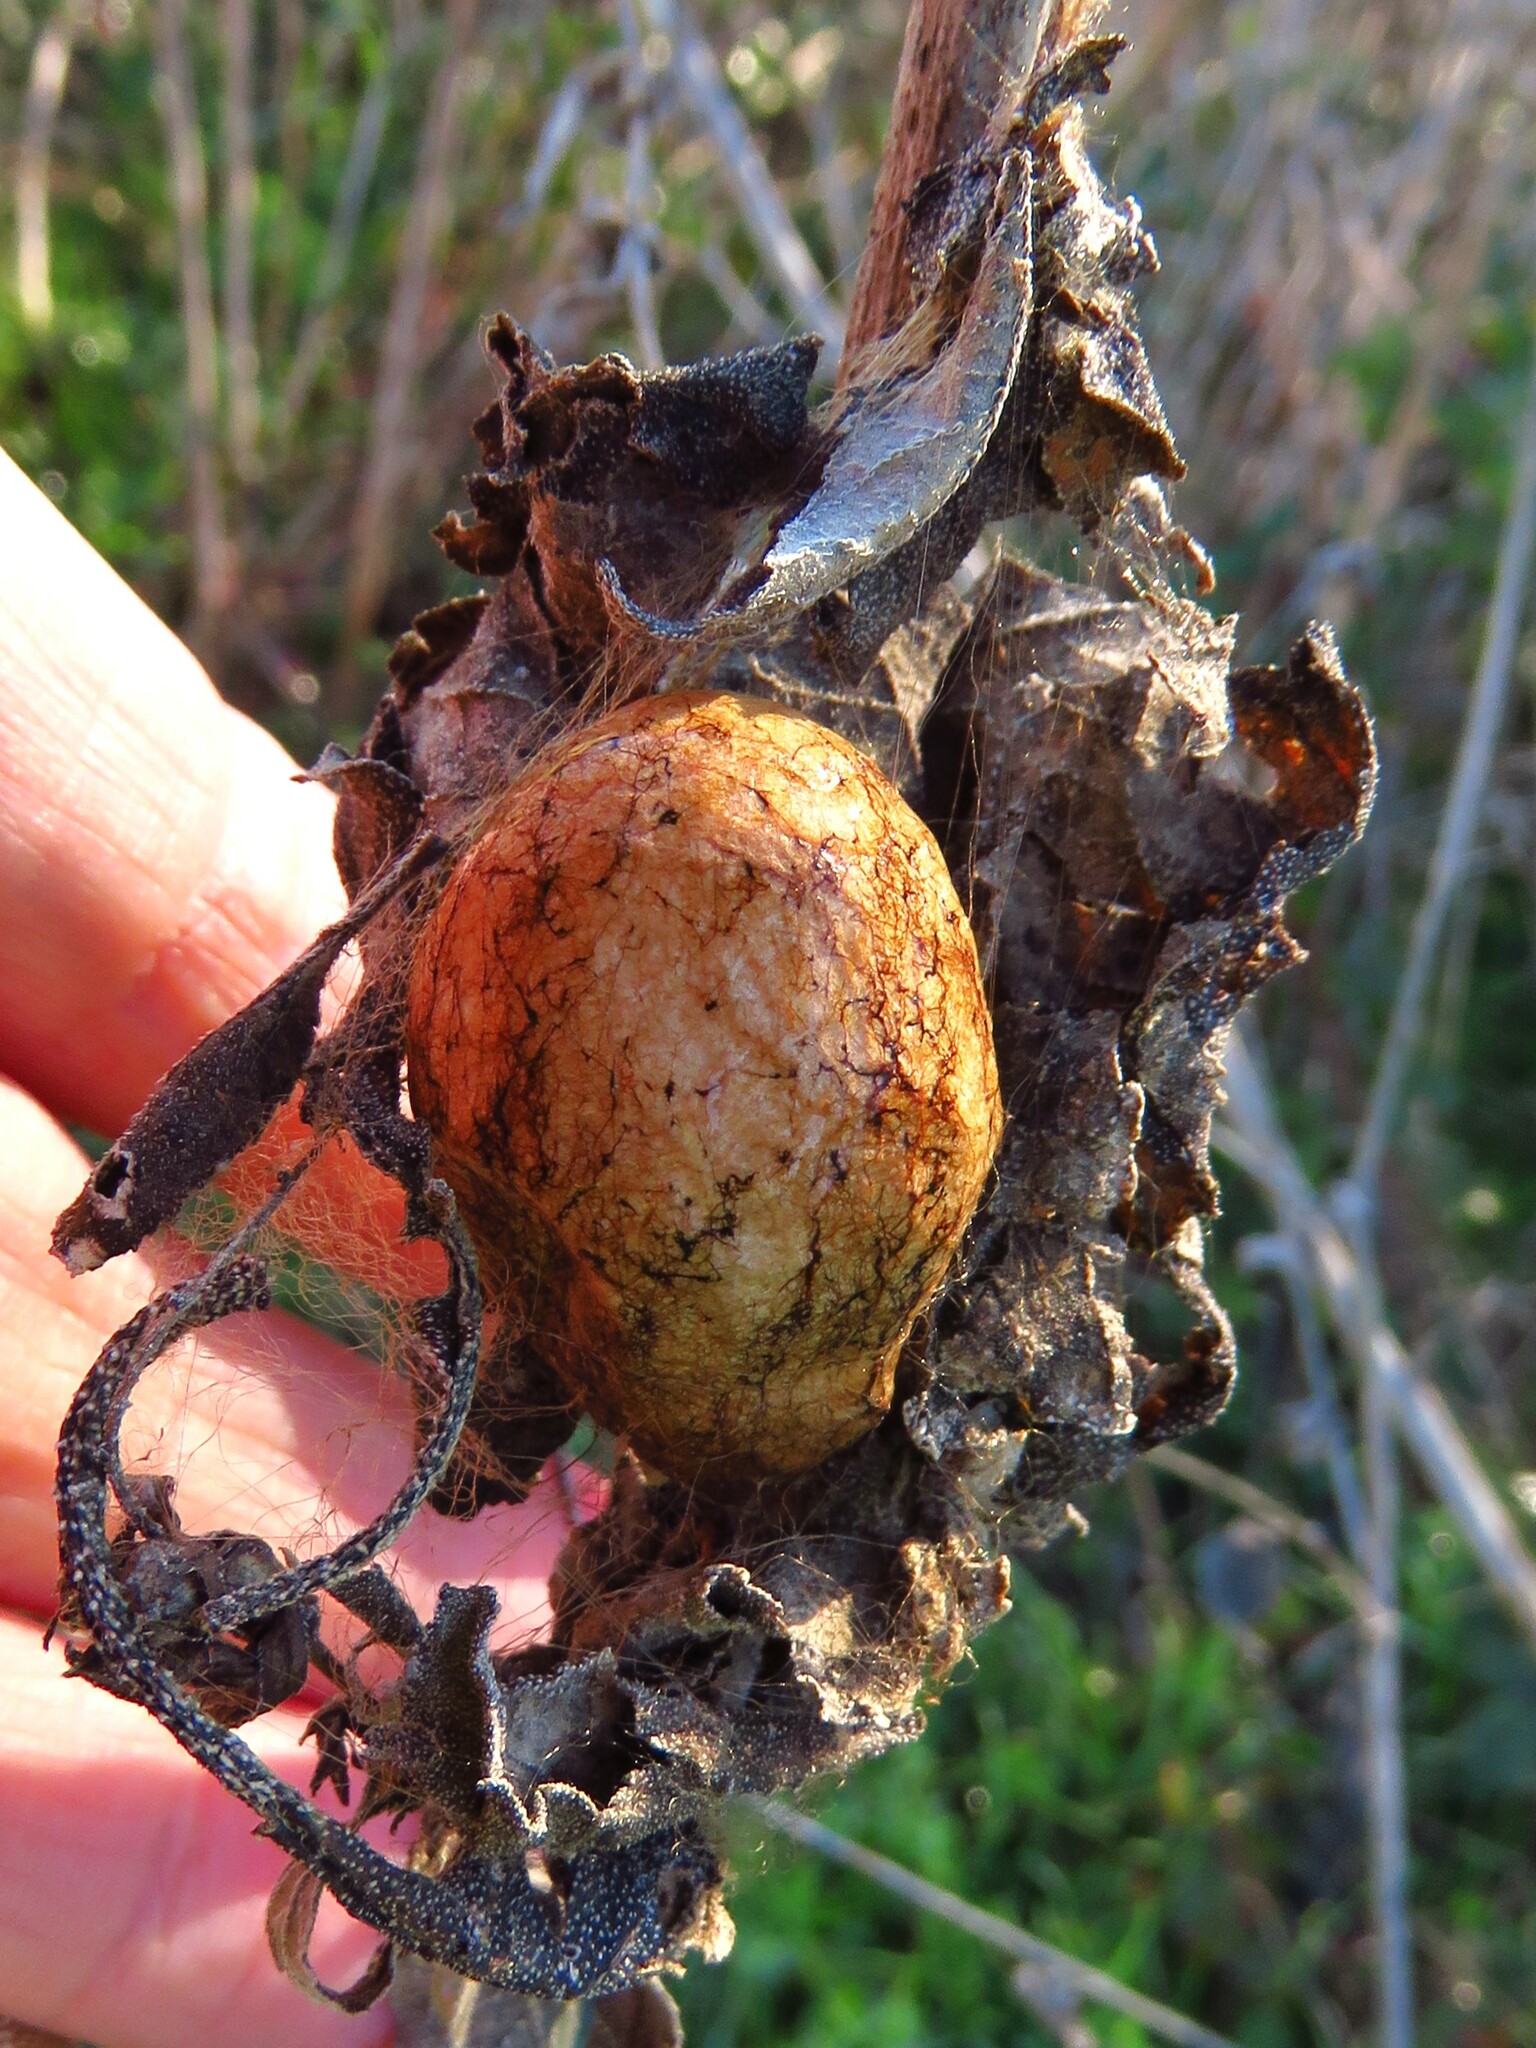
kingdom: Animalia
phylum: Arthropoda
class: Arachnida
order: Araneae
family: Araneidae
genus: Argiope
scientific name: Argiope aurantia
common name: Orb weavers
